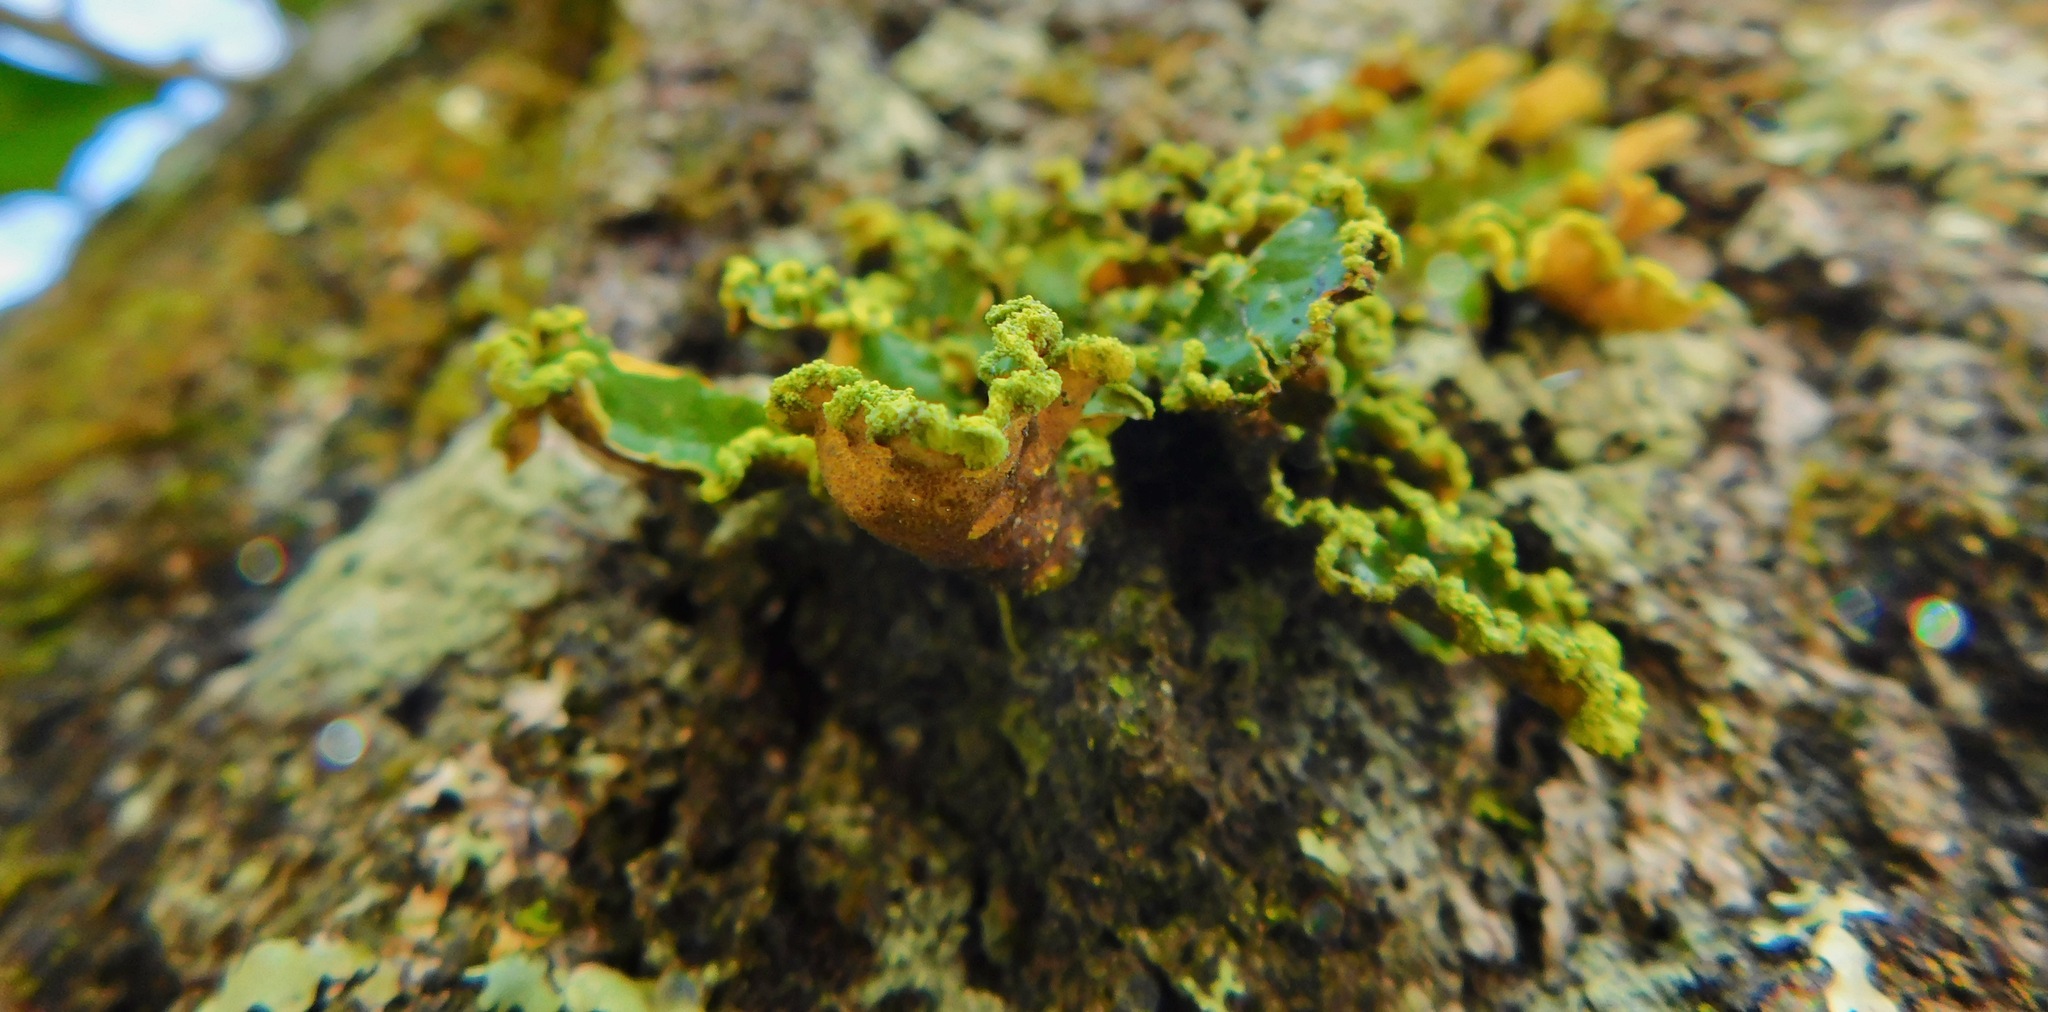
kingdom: Fungi
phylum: Ascomycota
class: Lecanoromycetes
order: Peltigerales
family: Lobariaceae
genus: Pseudocyphellaria
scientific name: Pseudocyphellaria aurata
